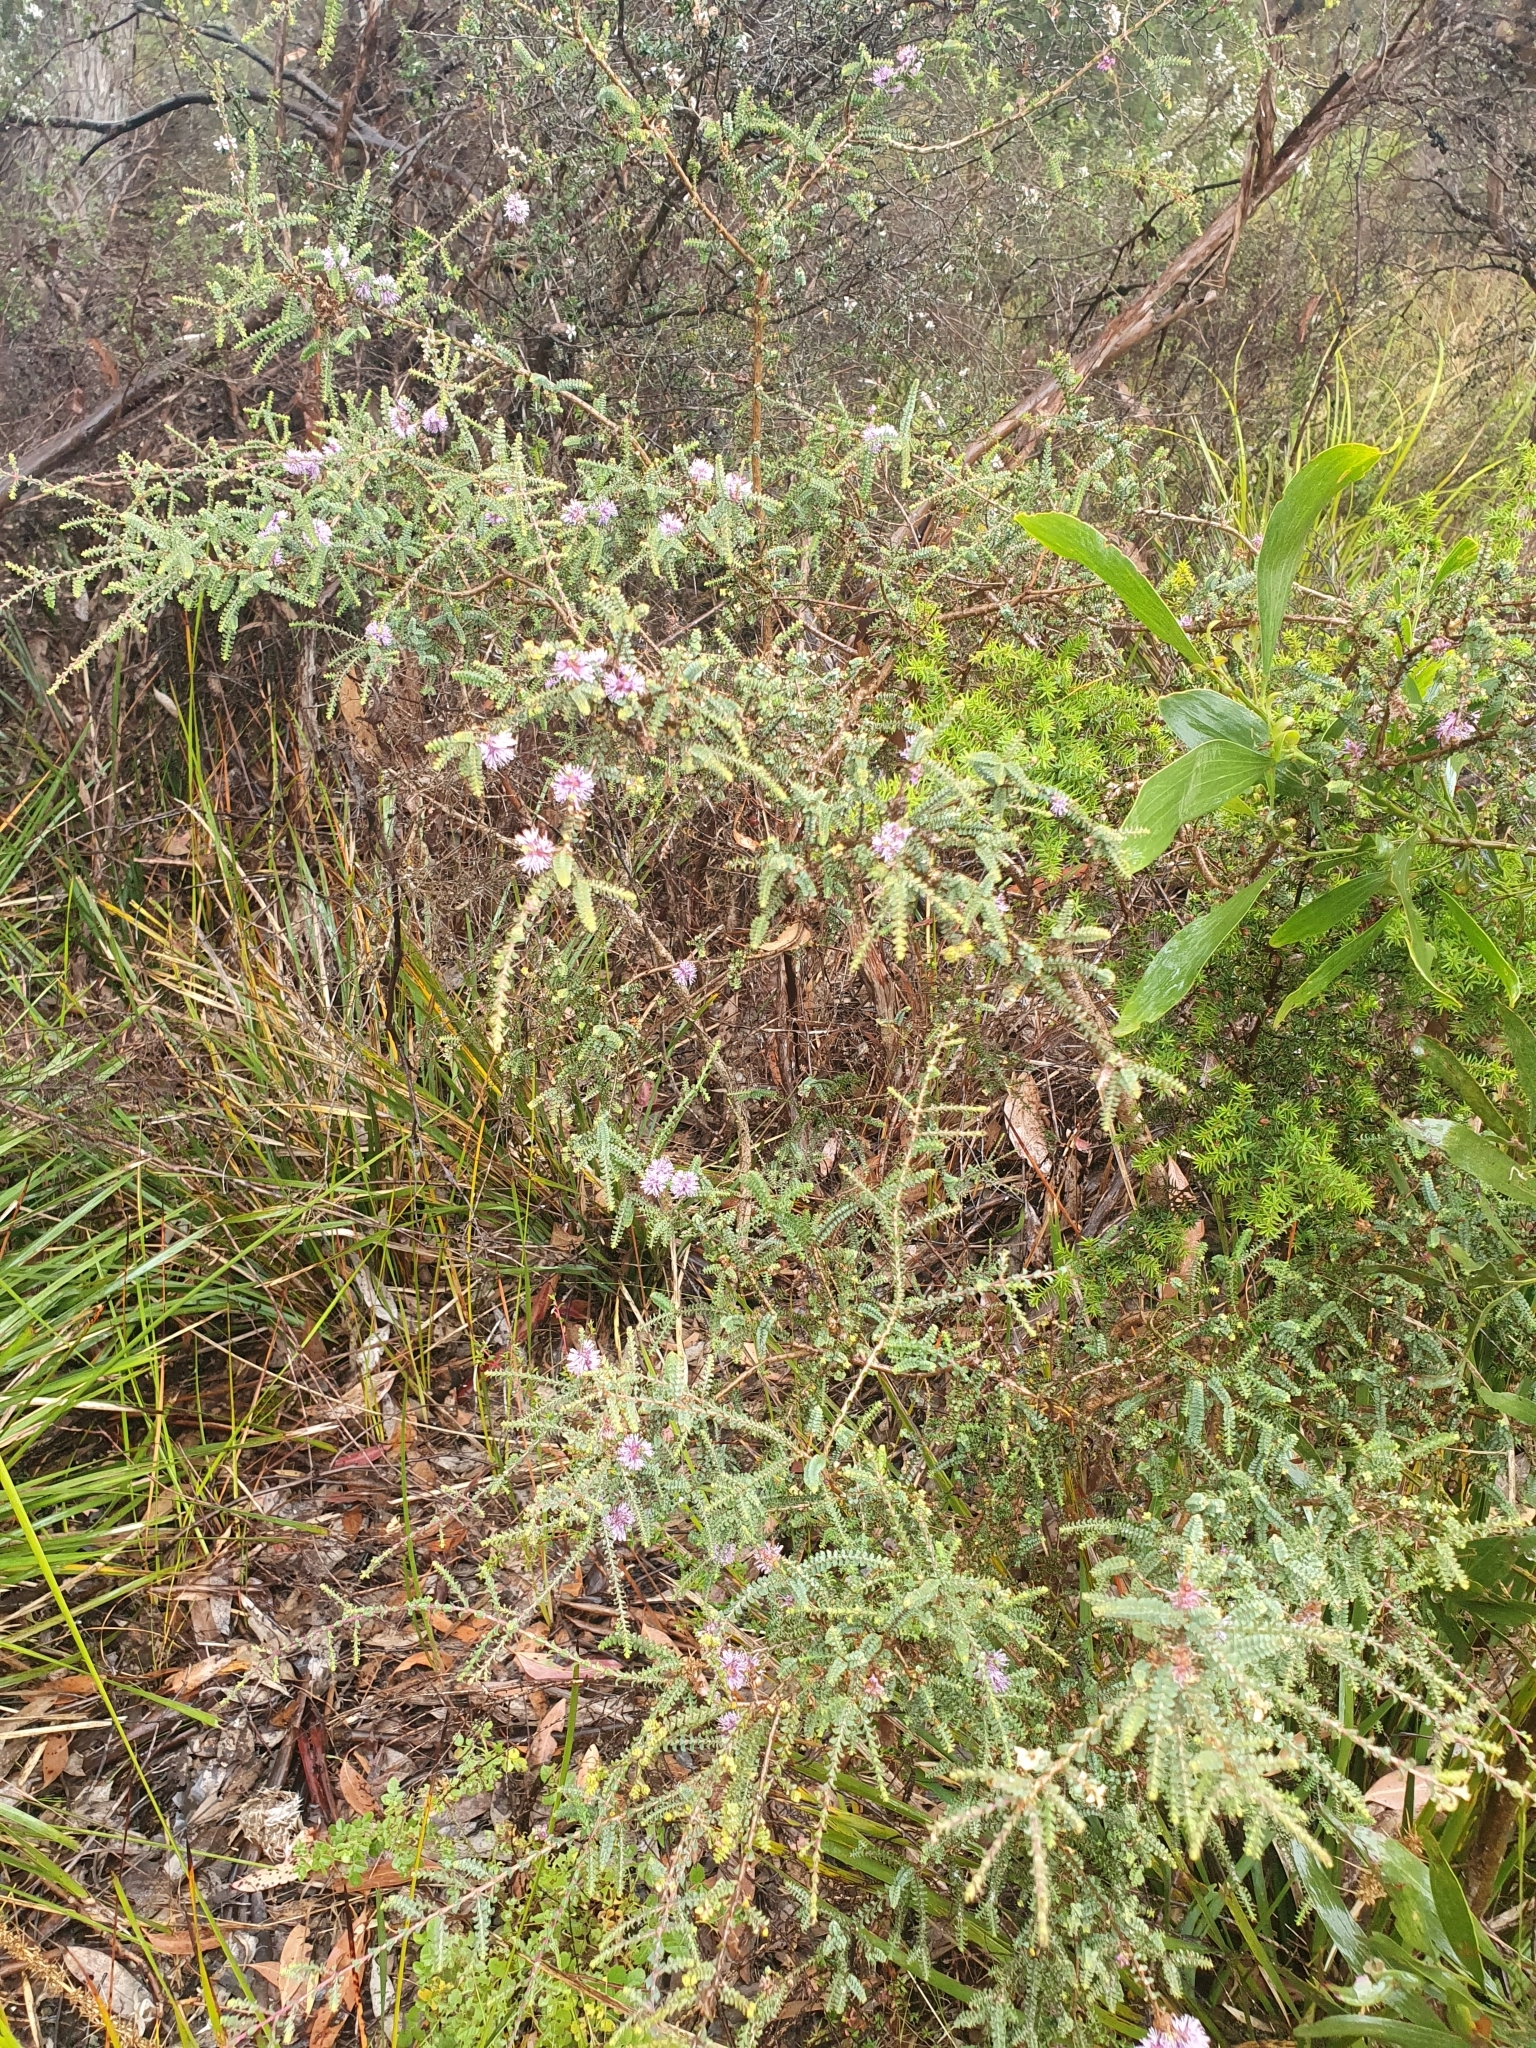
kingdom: Plantae
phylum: Tracheophyta
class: Magnoliopsida
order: Myrtales
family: Myrtaceae
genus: Melaleuca
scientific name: Melaleuca gibbosa
